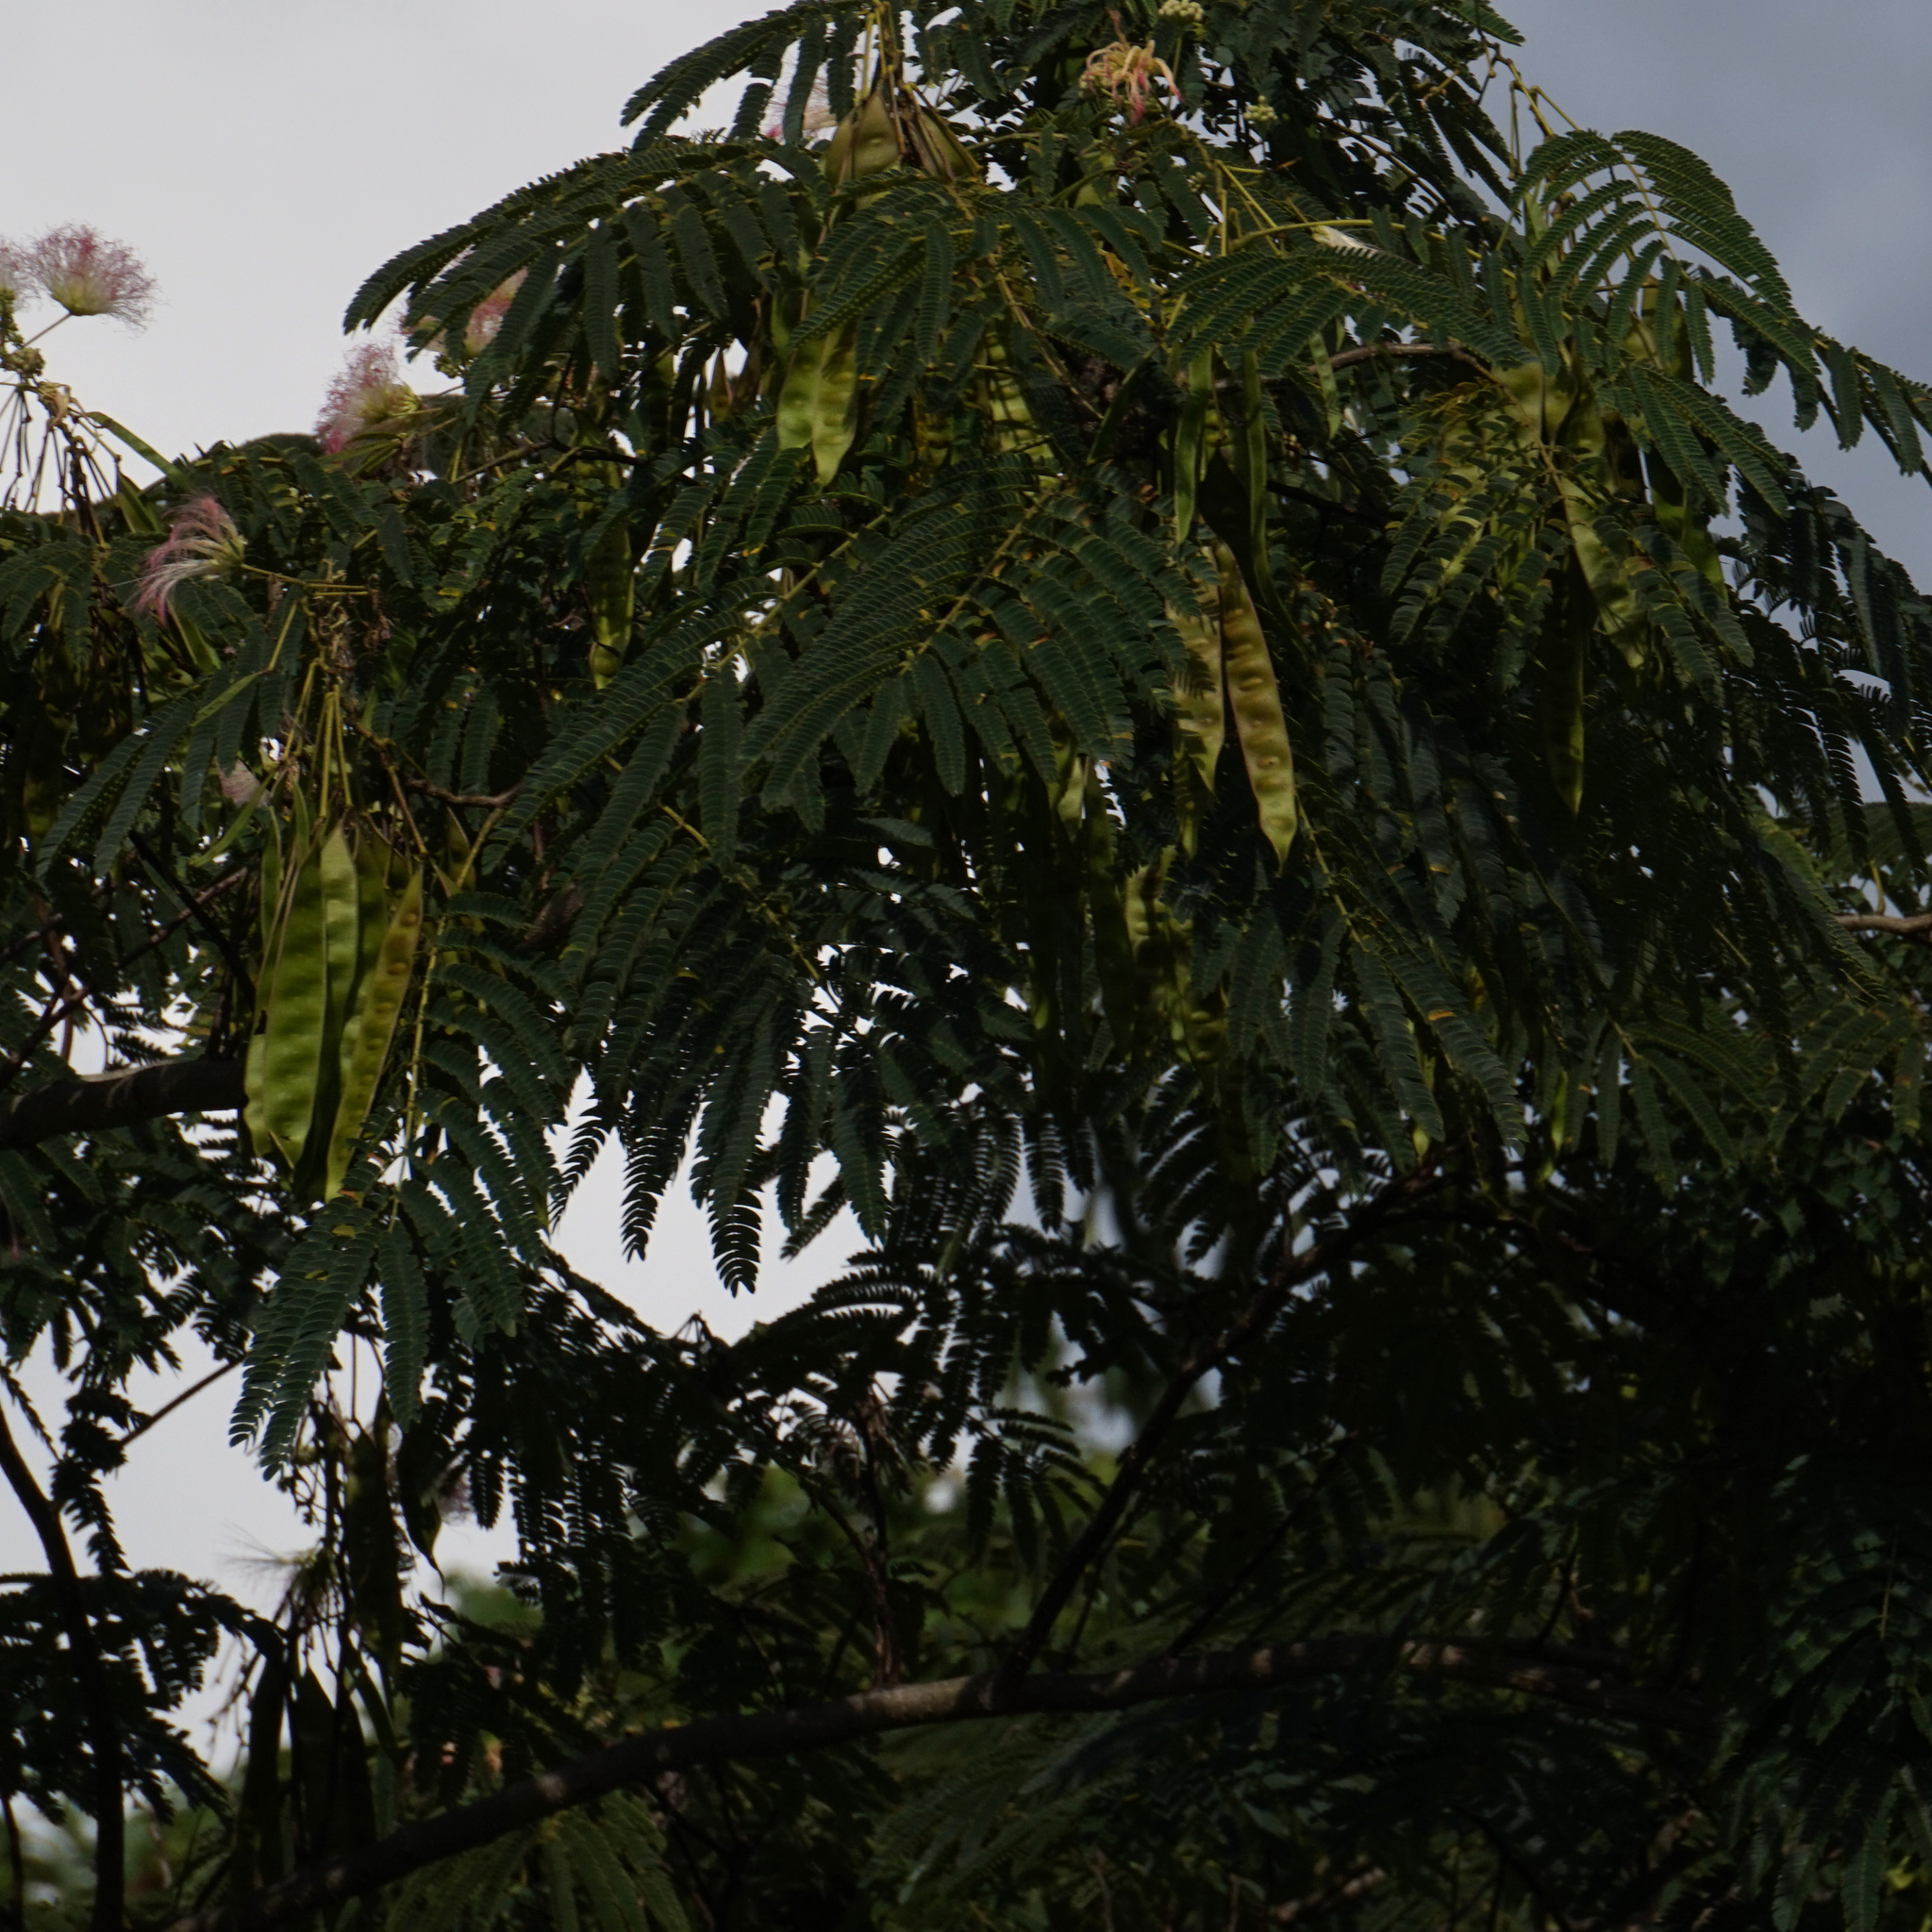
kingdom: Plantae
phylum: Tracheophyta
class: Magnoliopsida
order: Fabales
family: Fabaceae
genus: Albizia
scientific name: Albizia julibrissin
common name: Silktree
